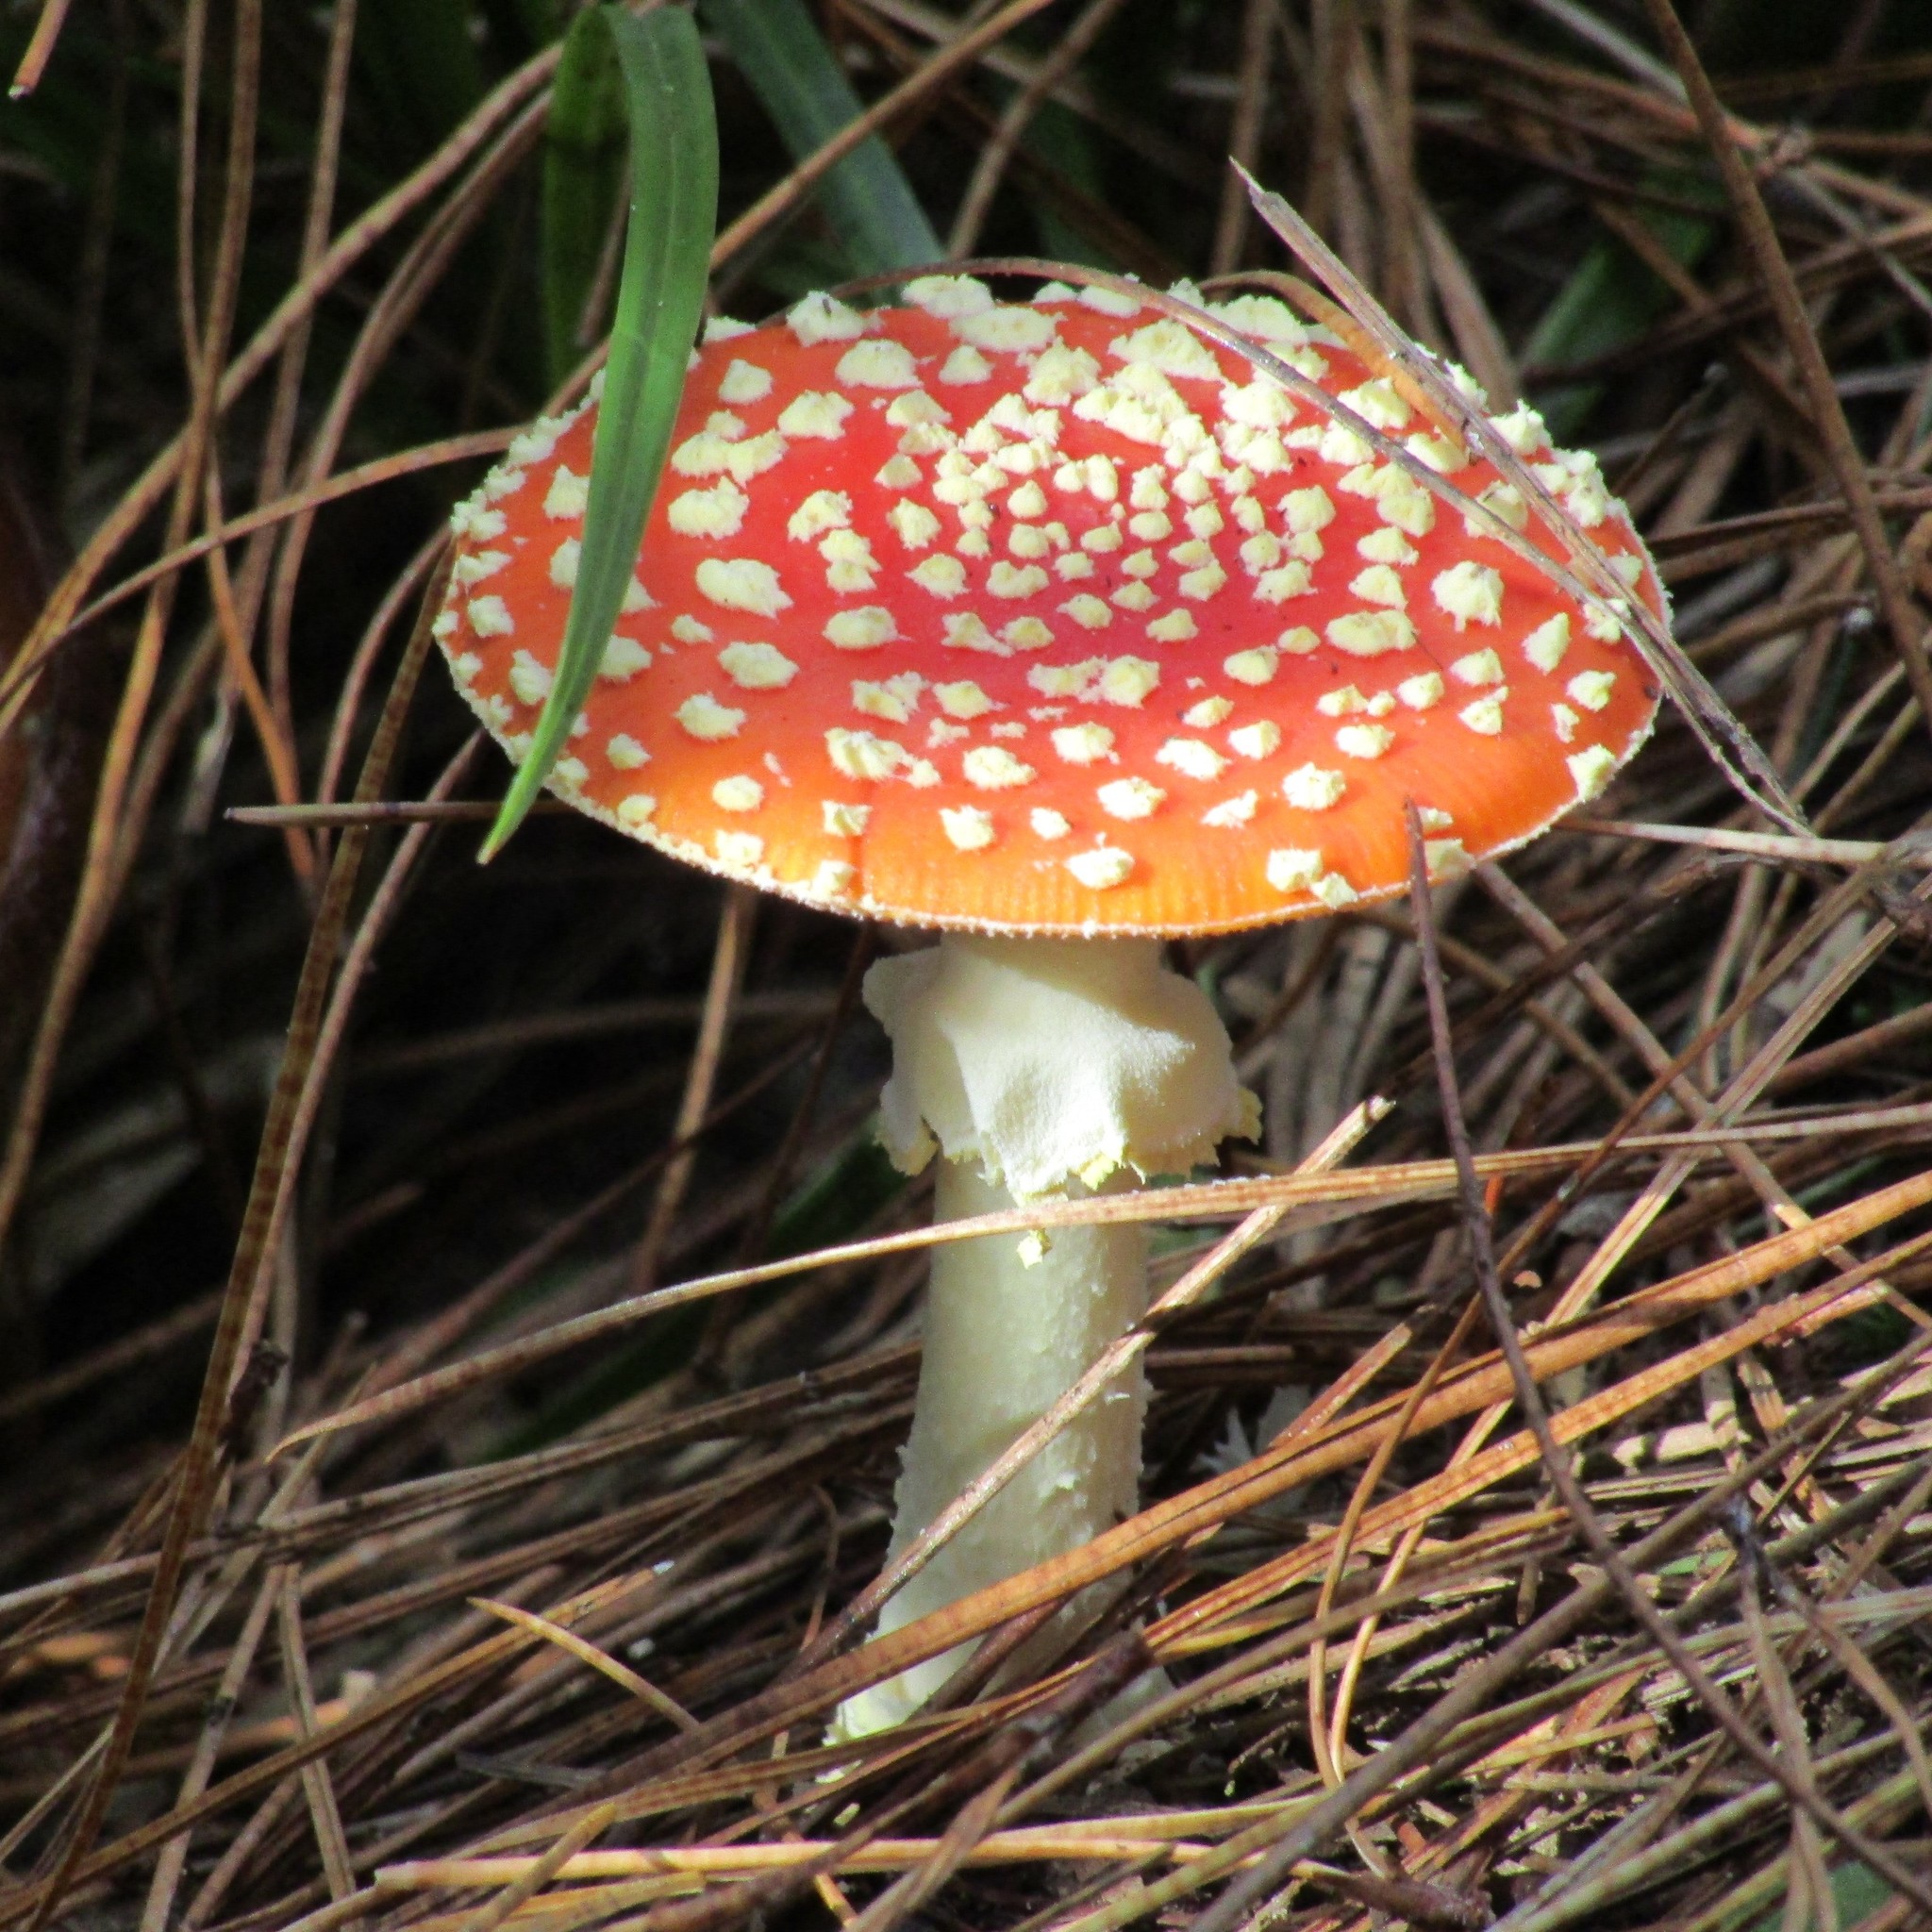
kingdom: Fungi
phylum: Basidiomycota
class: Agaricomycetes
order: Agaricales
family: Amanitaceae
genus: Amanita
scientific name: Amanita muscaria
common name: Fly agaric
